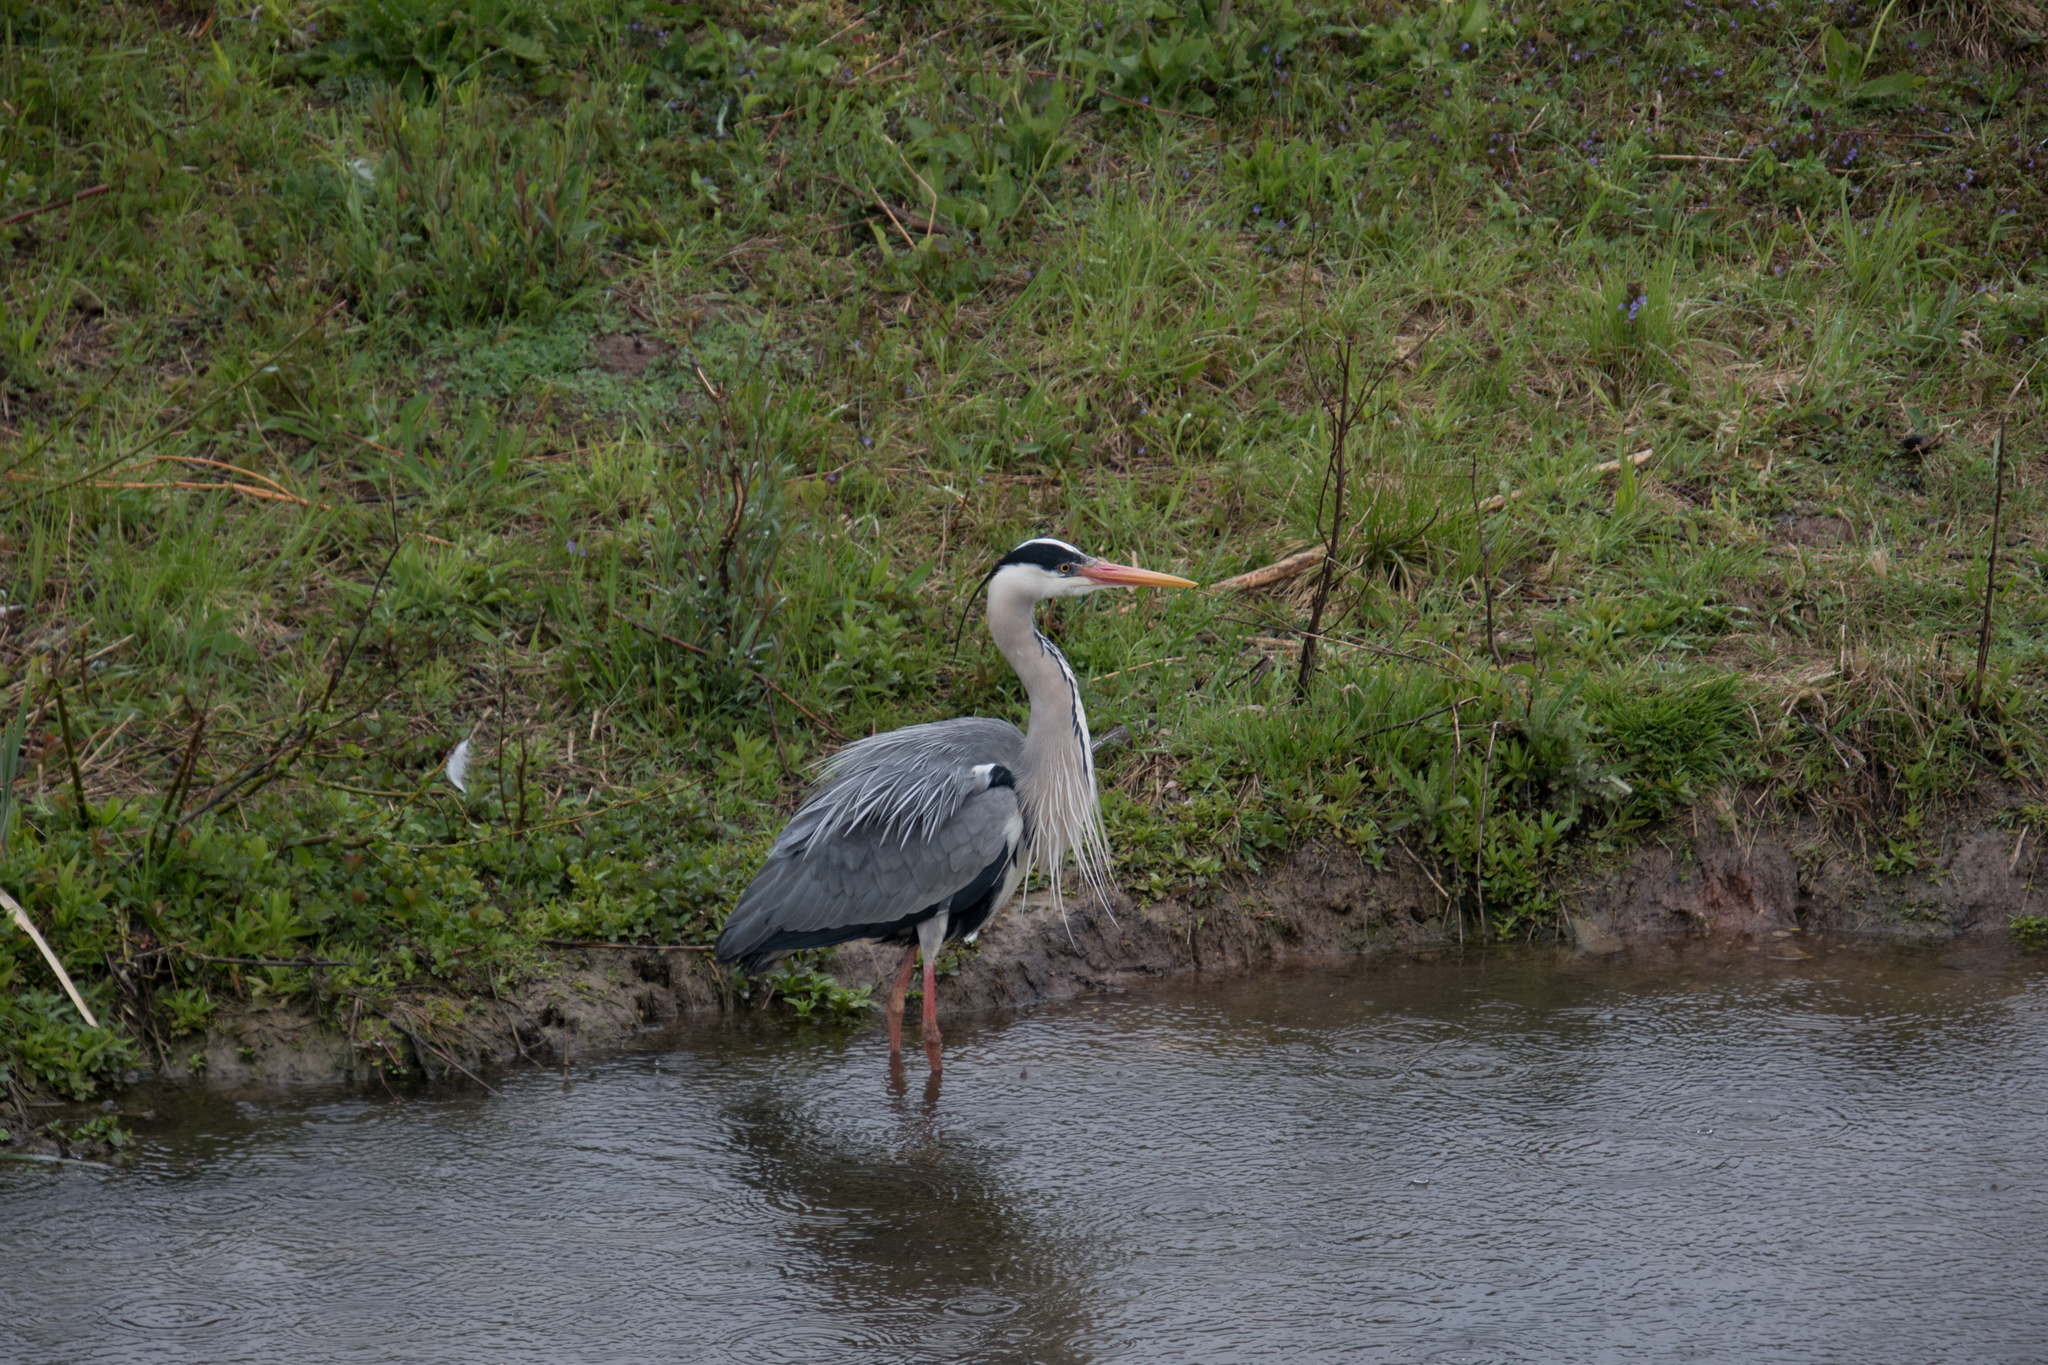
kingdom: Animalia
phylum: Chordata
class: Aves
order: Pelecaniformes
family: Ardeidae
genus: Ardea
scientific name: Ardea cinerea
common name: Grey heron
